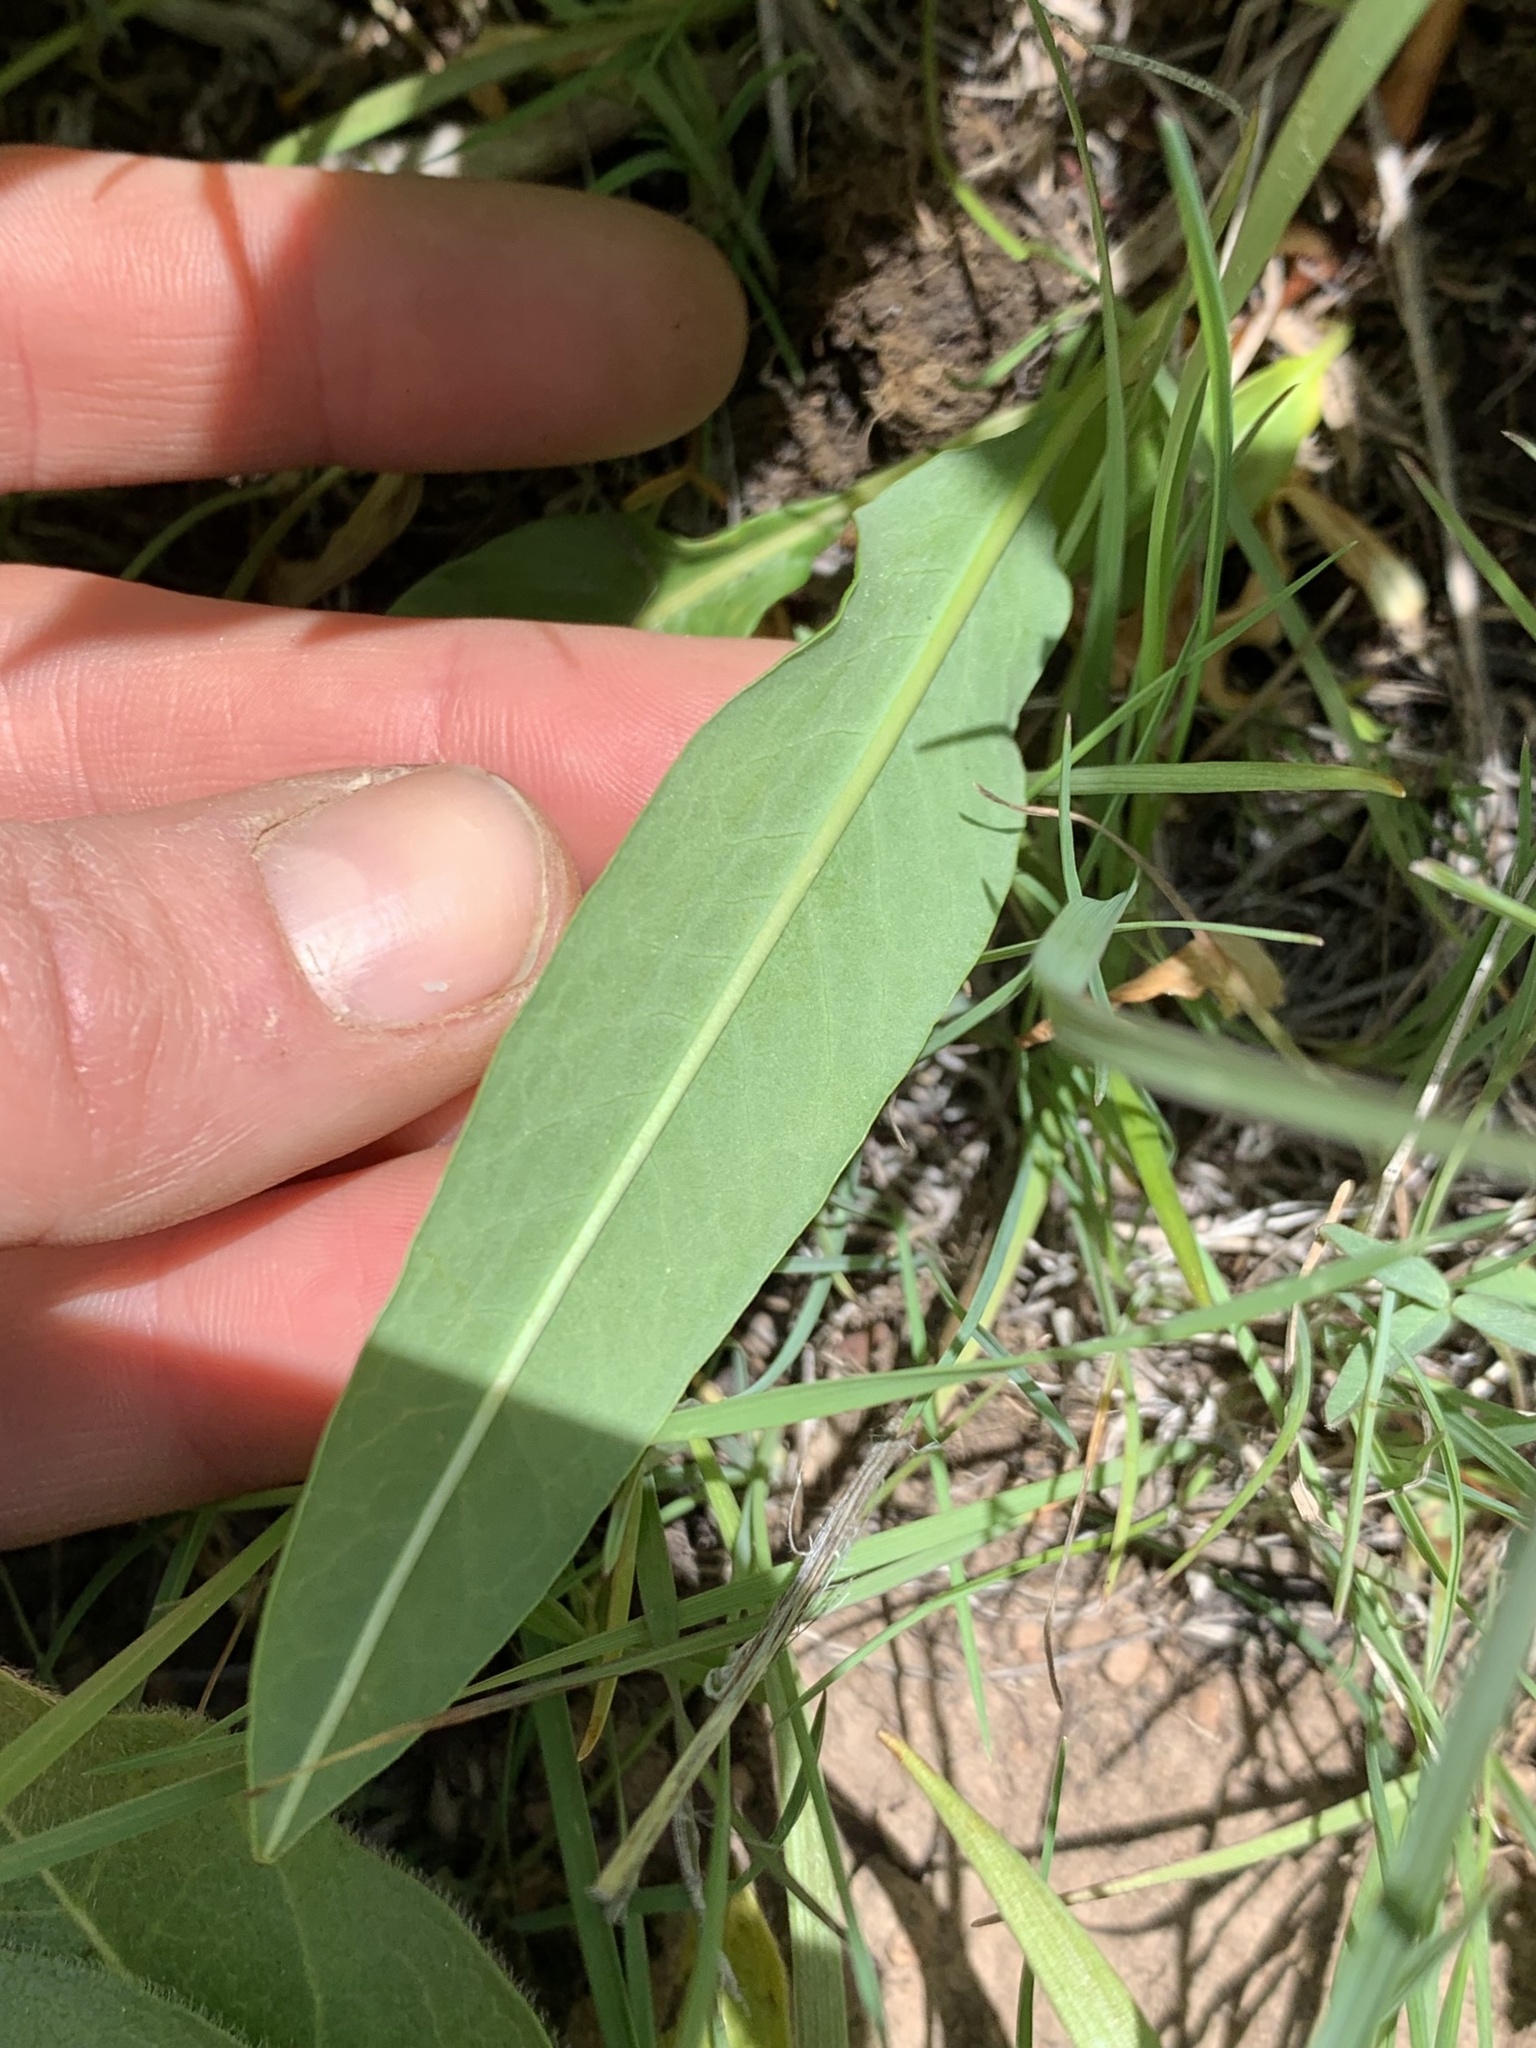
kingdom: Plantae
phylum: Tracheophyta
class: Magnoliopsida
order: Caryophyllales
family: Polygonaceae
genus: Bistorta
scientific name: Bistorta bistortoides
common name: American bistort
